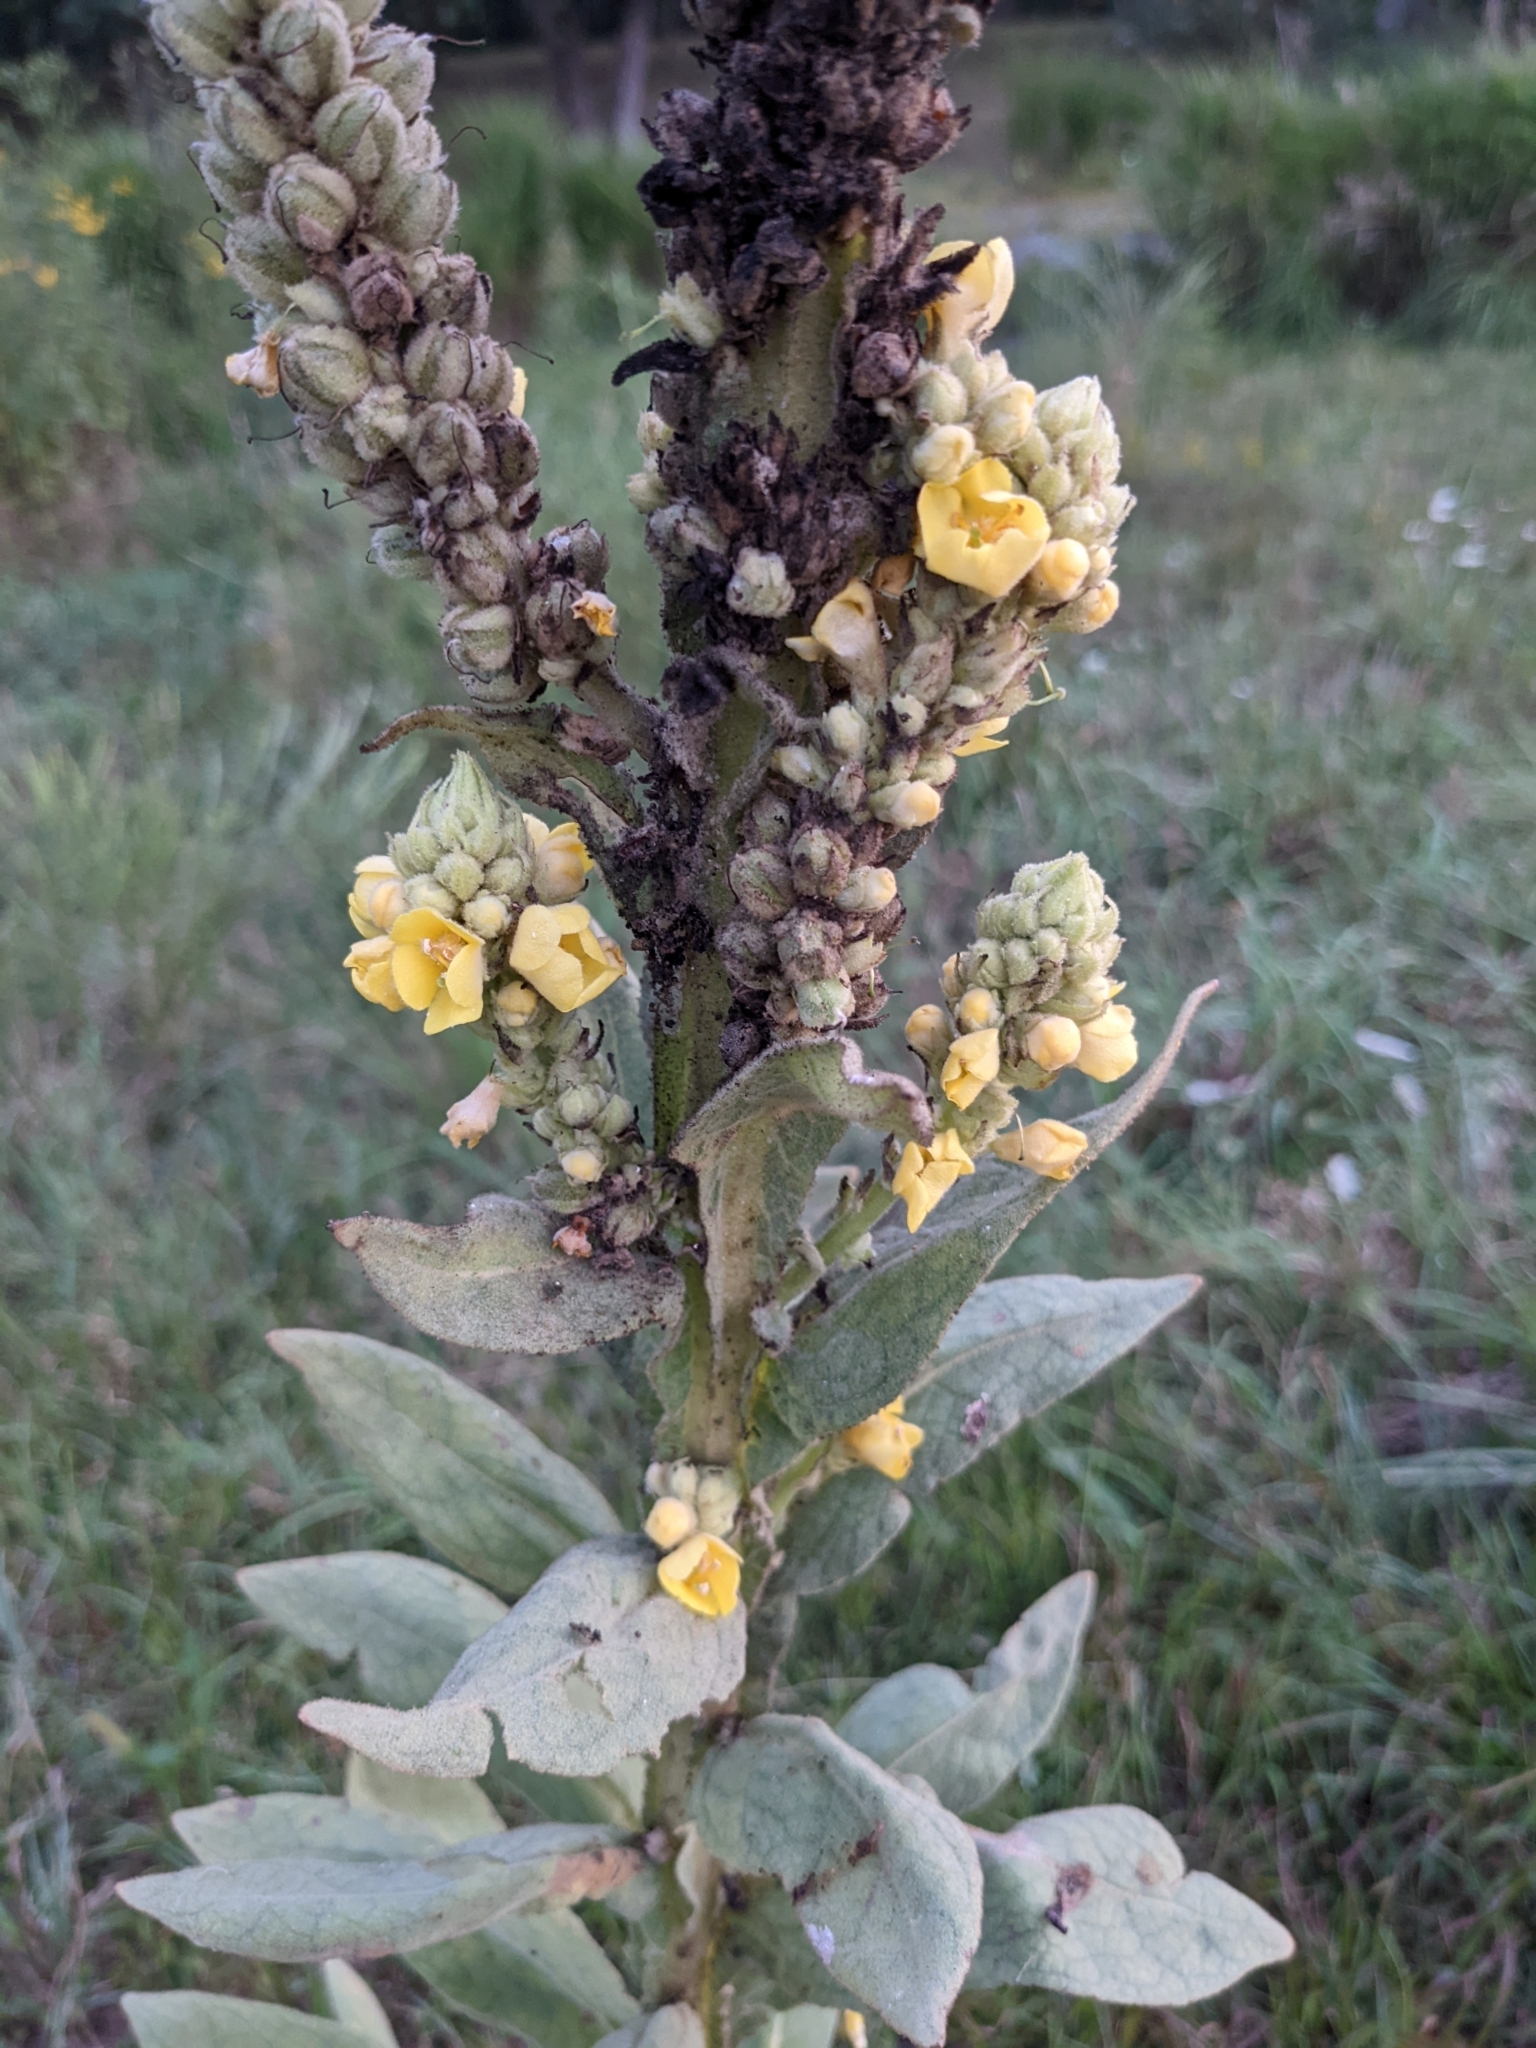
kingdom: Plantae
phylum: Tracheophyta
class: Magnoliopsida
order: Lamiales
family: Scrophulariaceae
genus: Verbascum
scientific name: Verbascum thapsus
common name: Common mullein
